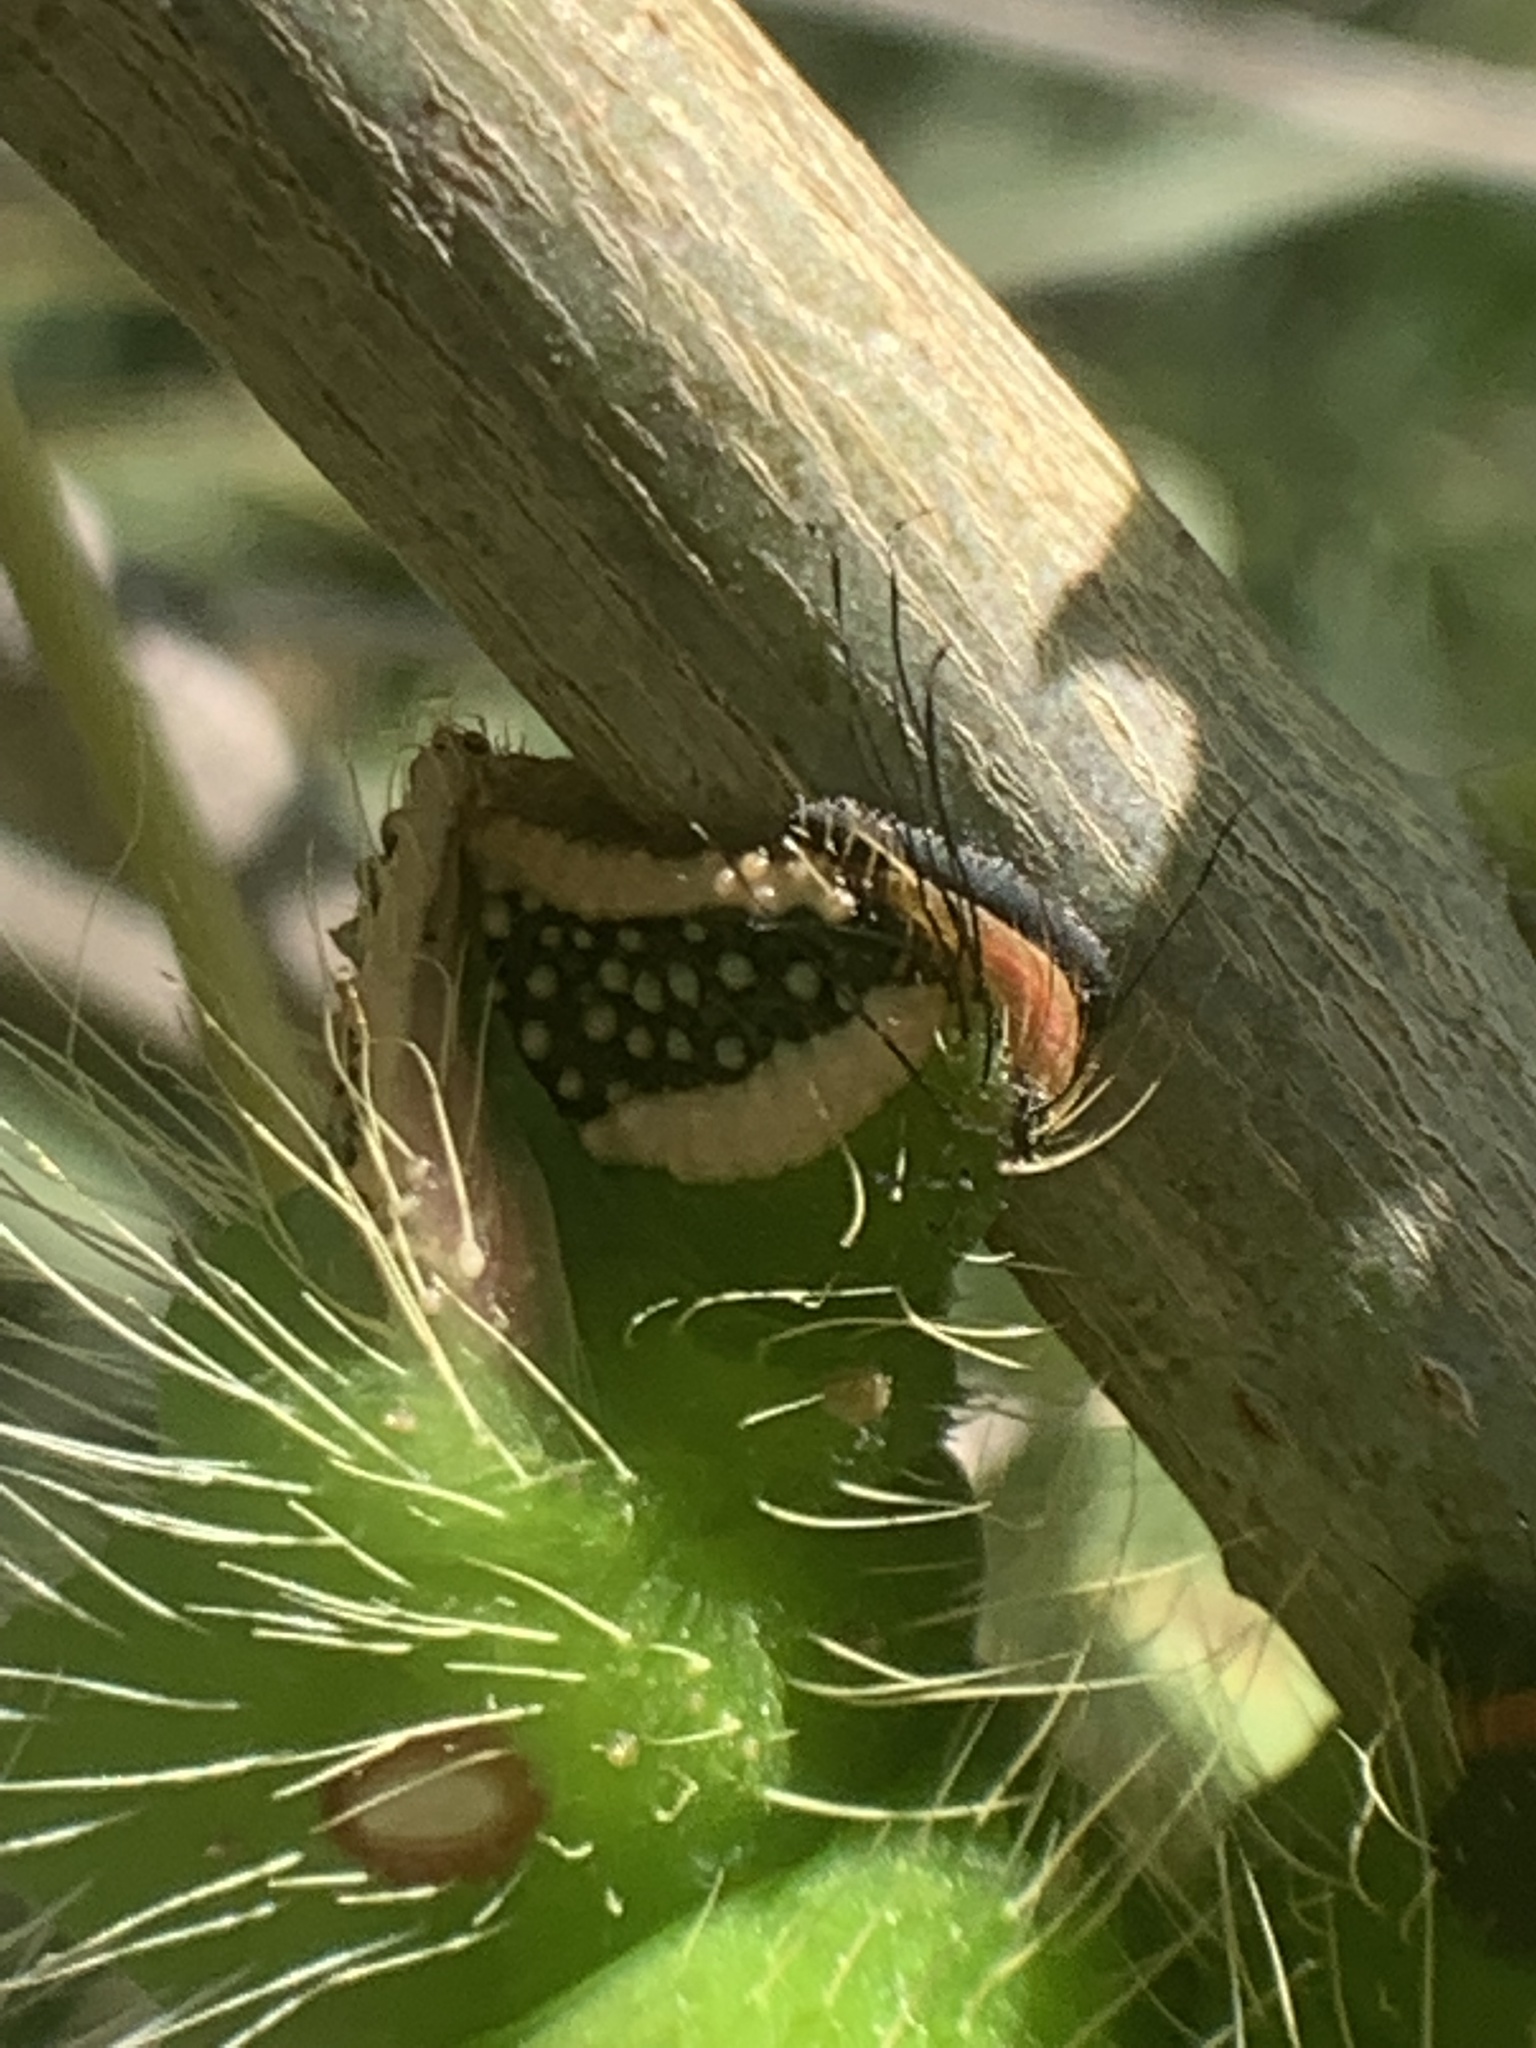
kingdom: Animalia
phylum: Arthropoda
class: Insecta
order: Lepidoptera
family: Saturniidae
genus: Eacles
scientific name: Eacles imperialis
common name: Imperial moth
